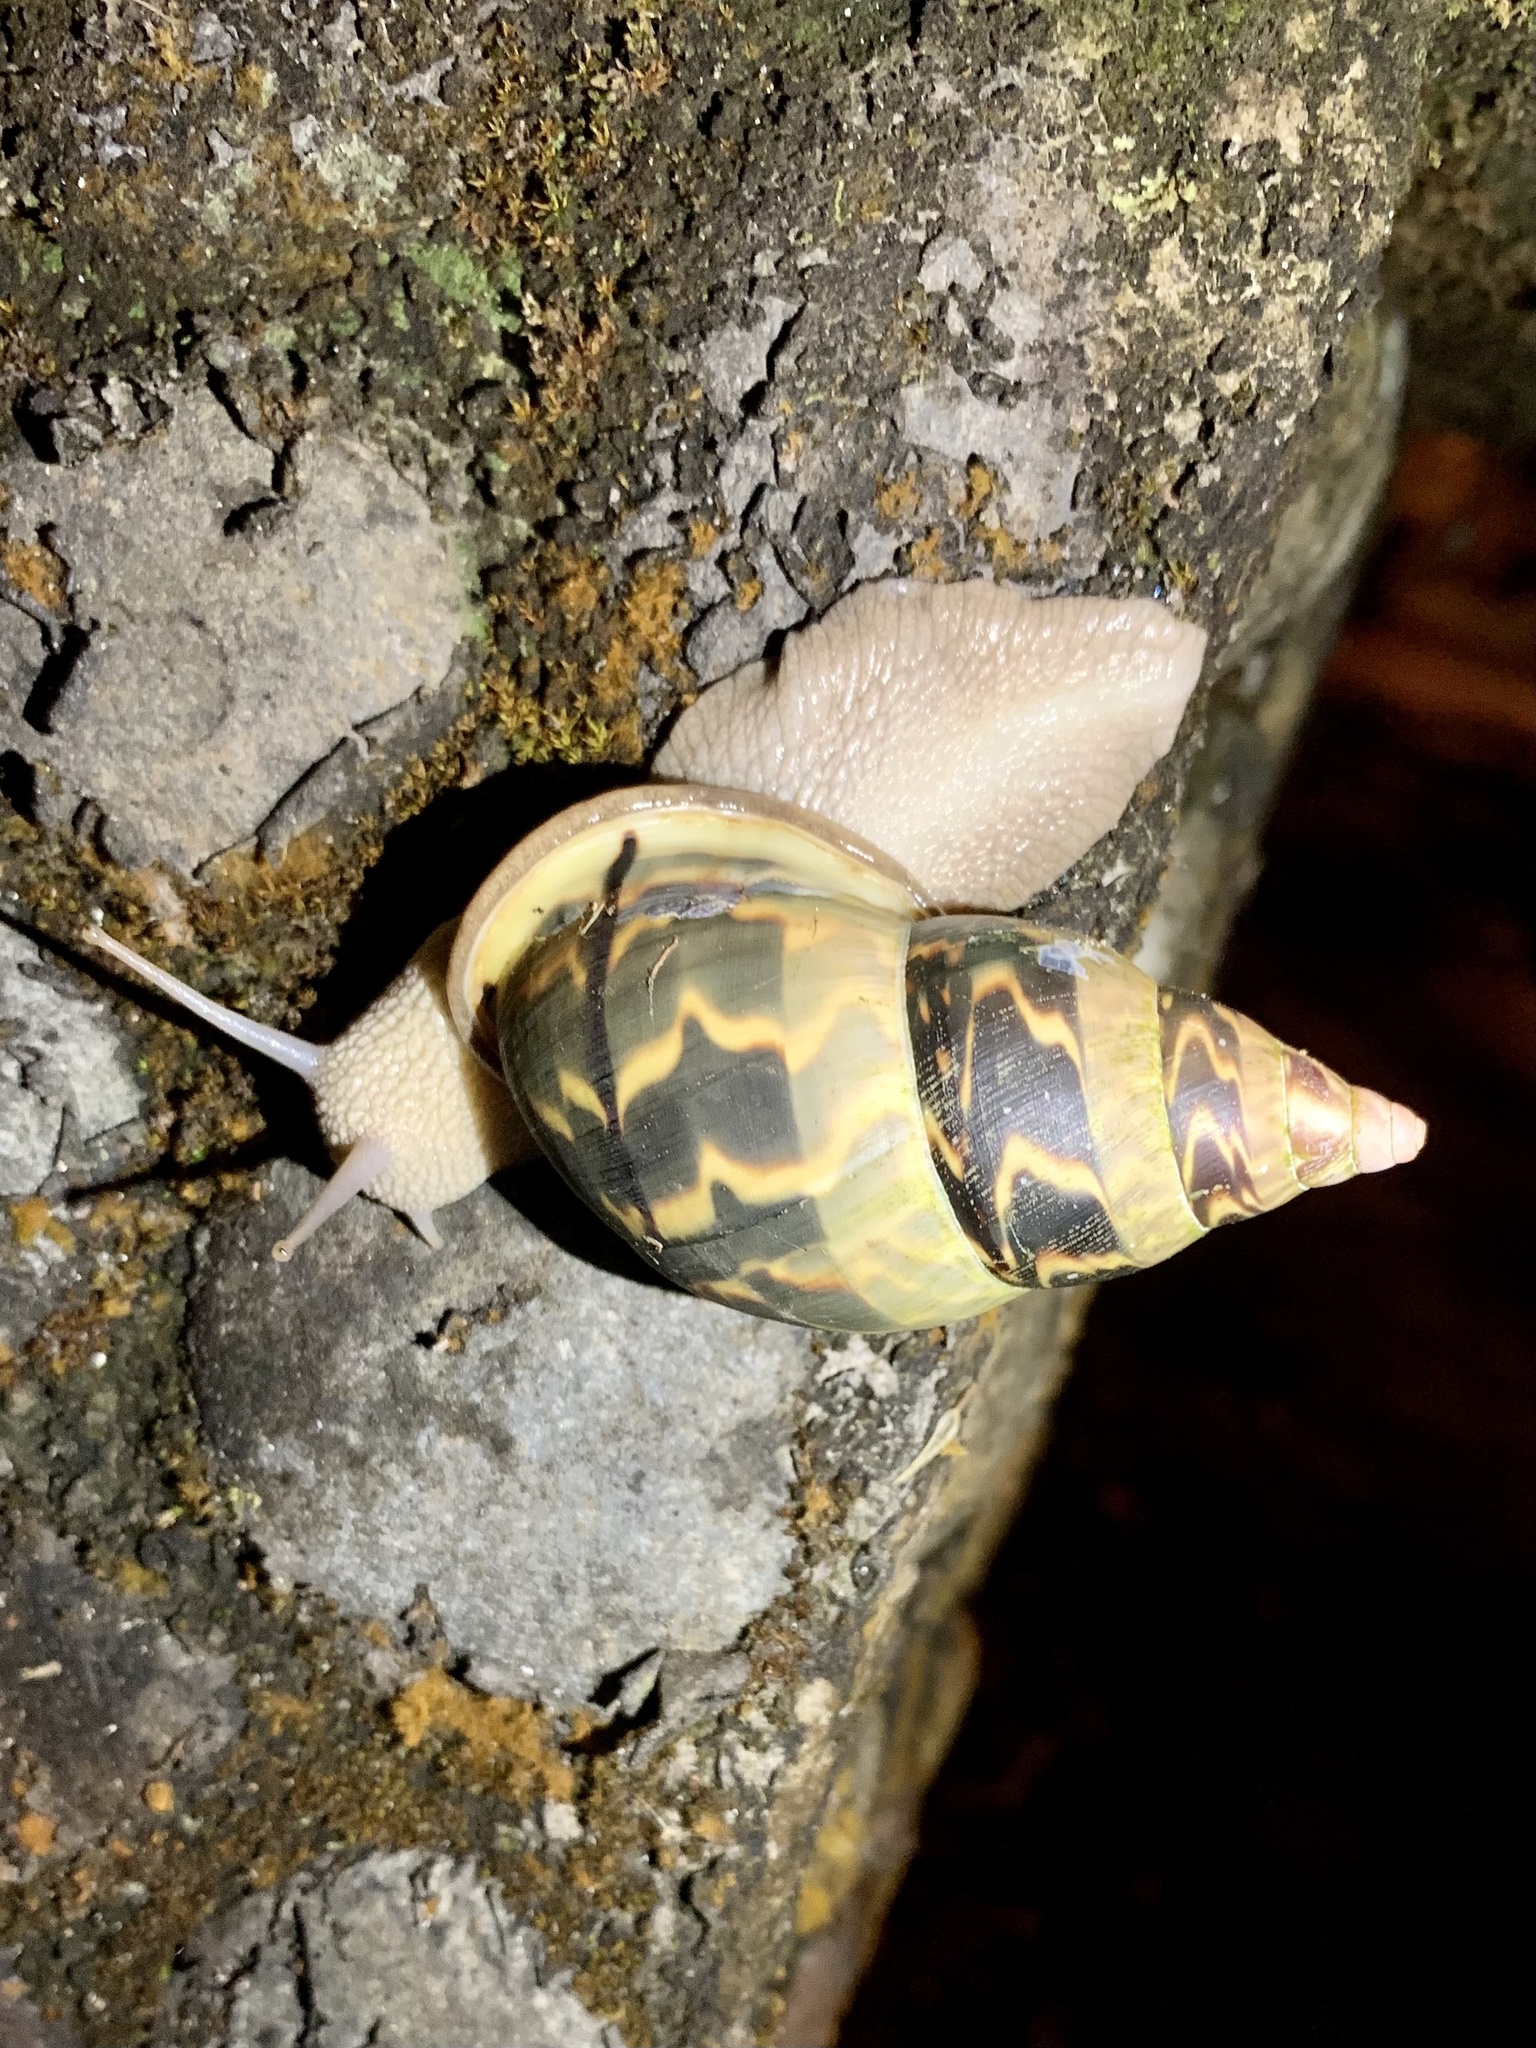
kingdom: Animalia
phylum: Mollusca
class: Gastropoda
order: Stylommatophora
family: Orthalicidae
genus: Sultana
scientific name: Sultana deburghiae
